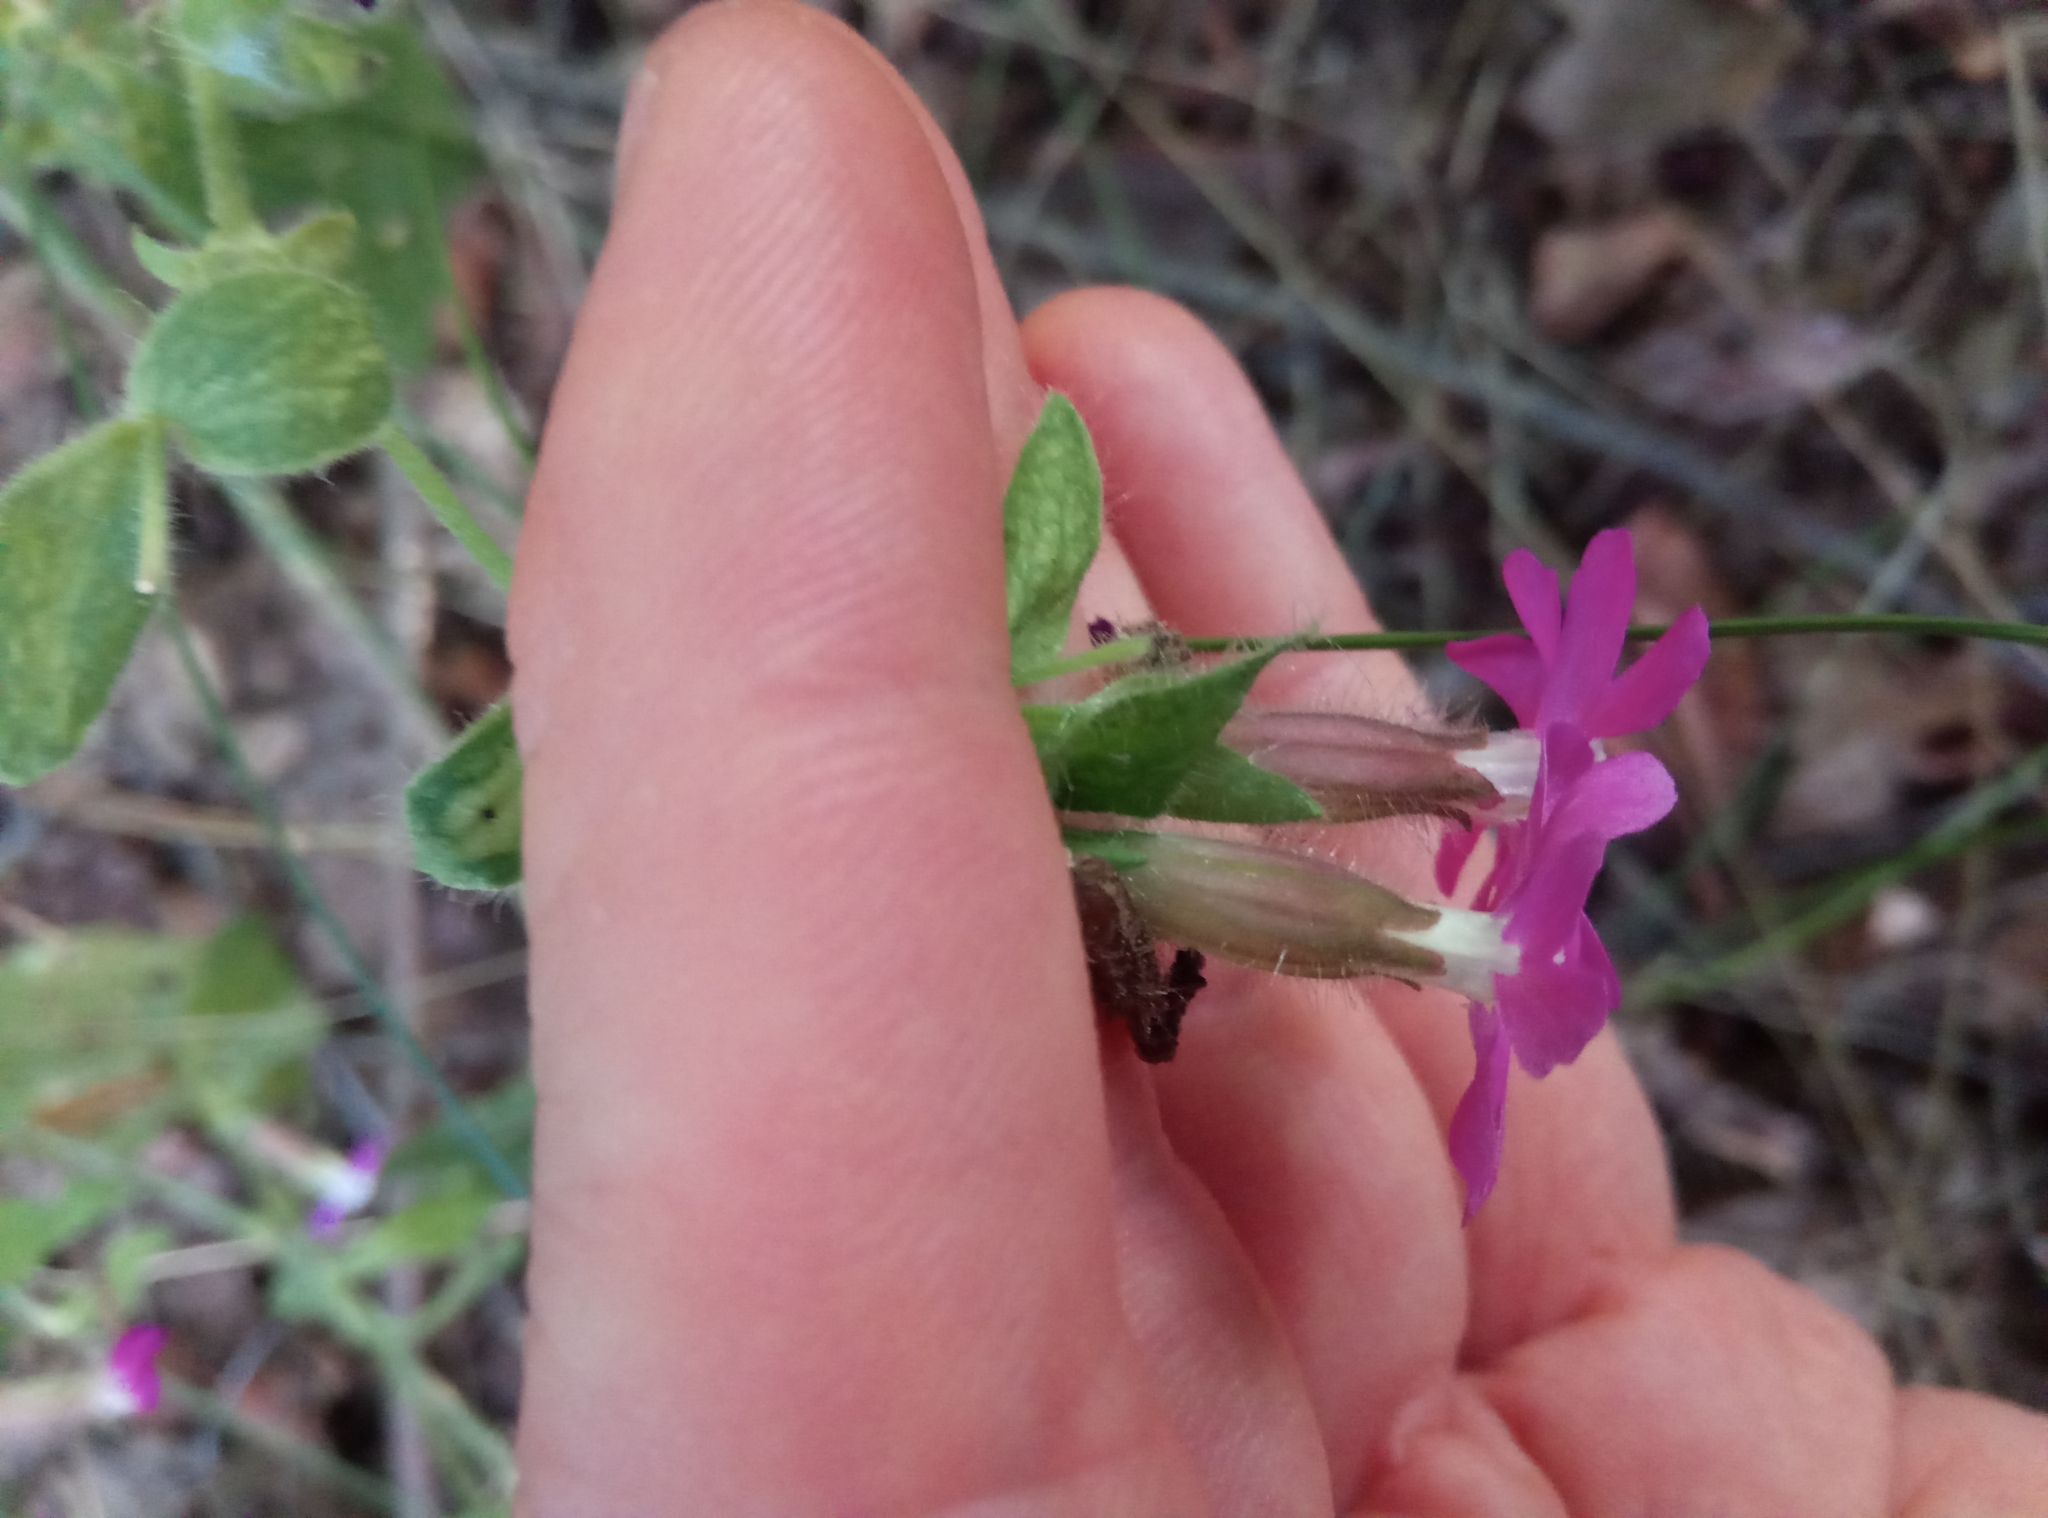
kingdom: Plantae
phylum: Tracheophyta
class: Magnoliopsida
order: Caryophyllales
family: Caryophyllaceae
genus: Silene
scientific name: Silene dioica
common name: Red campion
